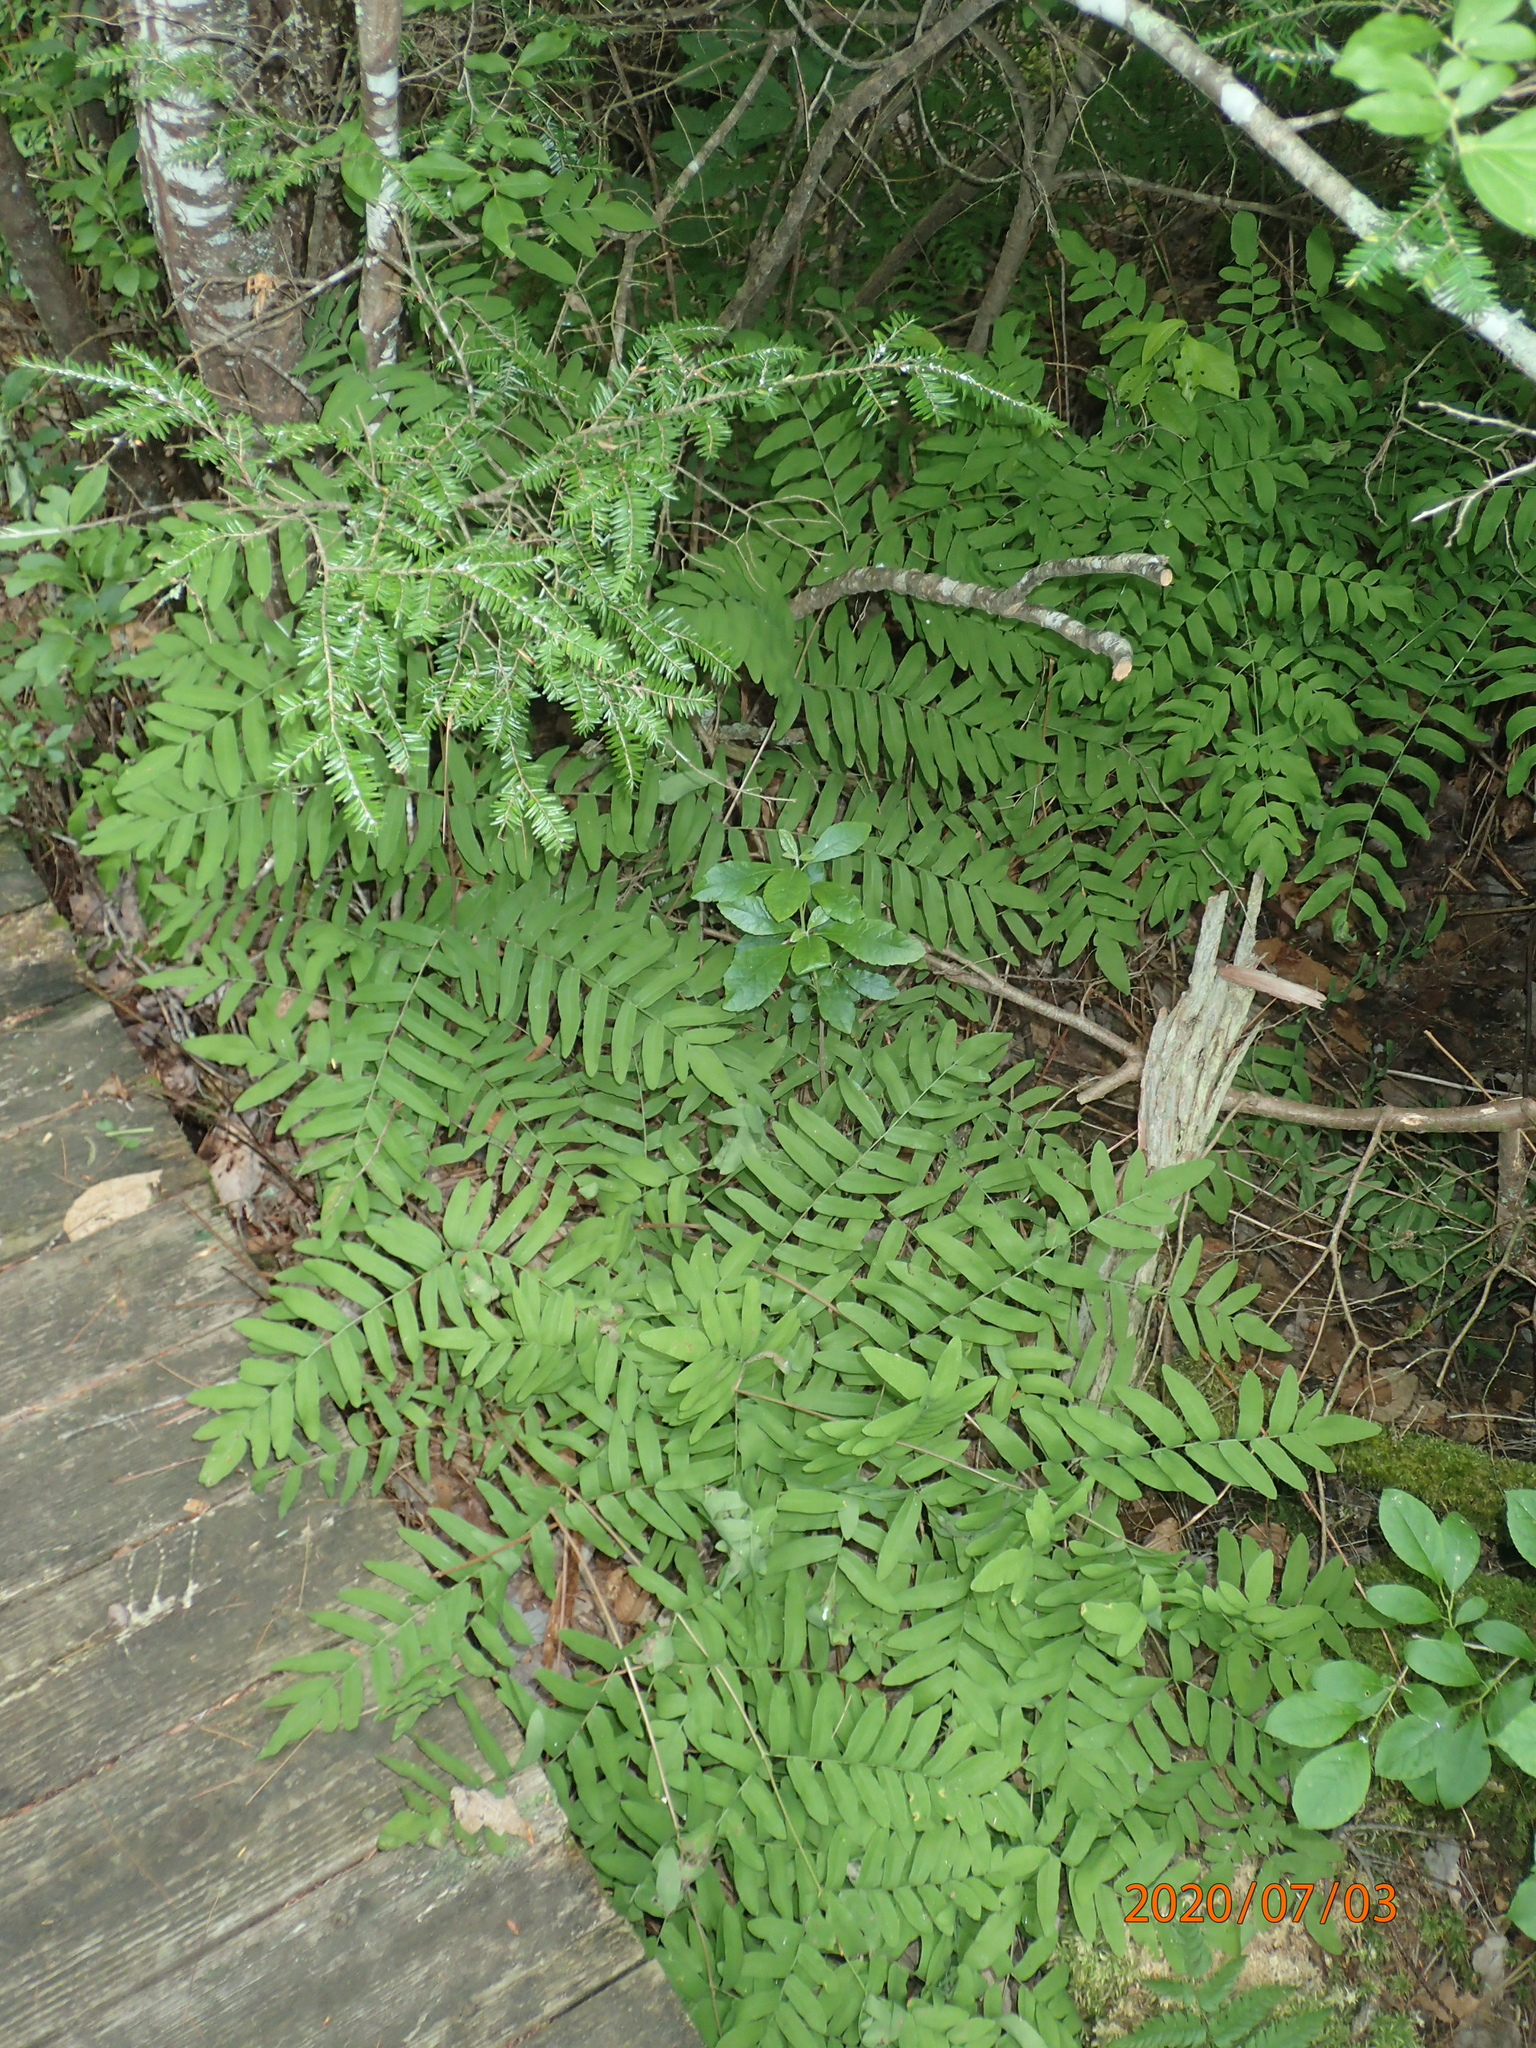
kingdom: Plantae
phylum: Tracheophyta
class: Polypodiopsida
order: Osmundales
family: Osmundaceae
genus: Osmunda
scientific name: Osmunda spectabilis
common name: American royal fern
